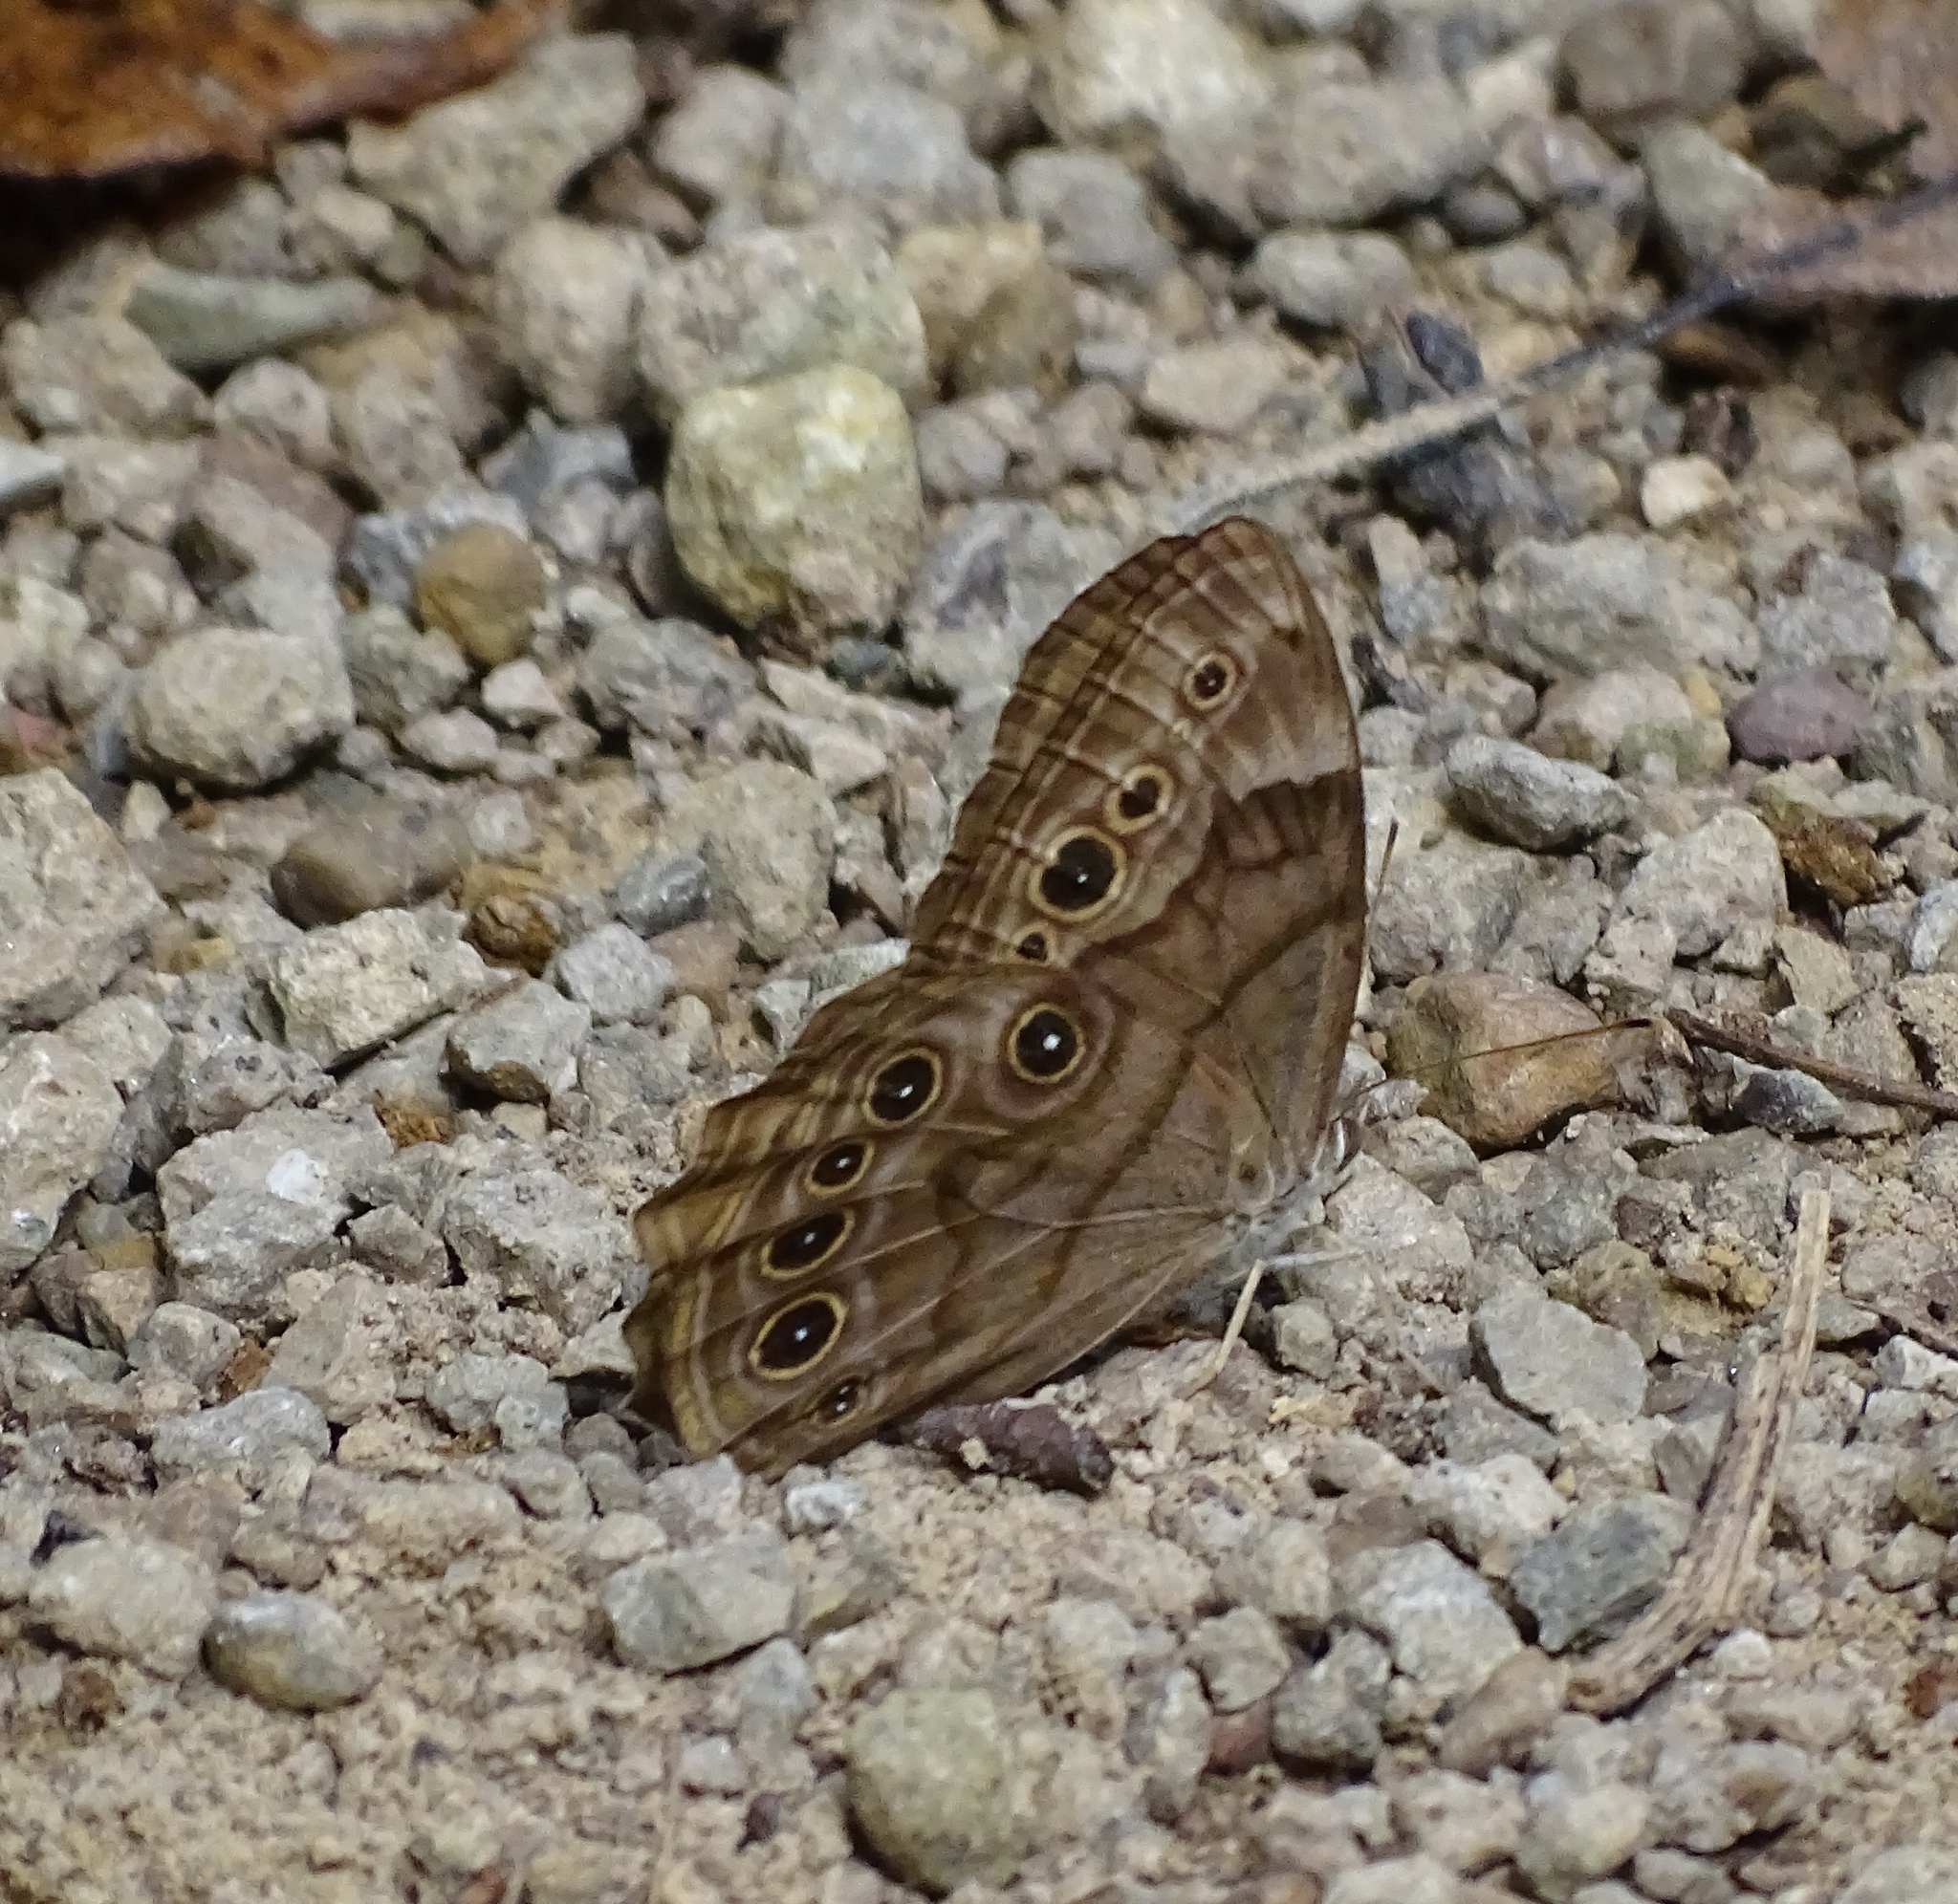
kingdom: Animalia
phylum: Arthropoda
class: Insecta
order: Lepidoptera
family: Nymphalidae
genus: Lethe
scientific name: Lethe anthedon
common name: Northern pearly-eye
